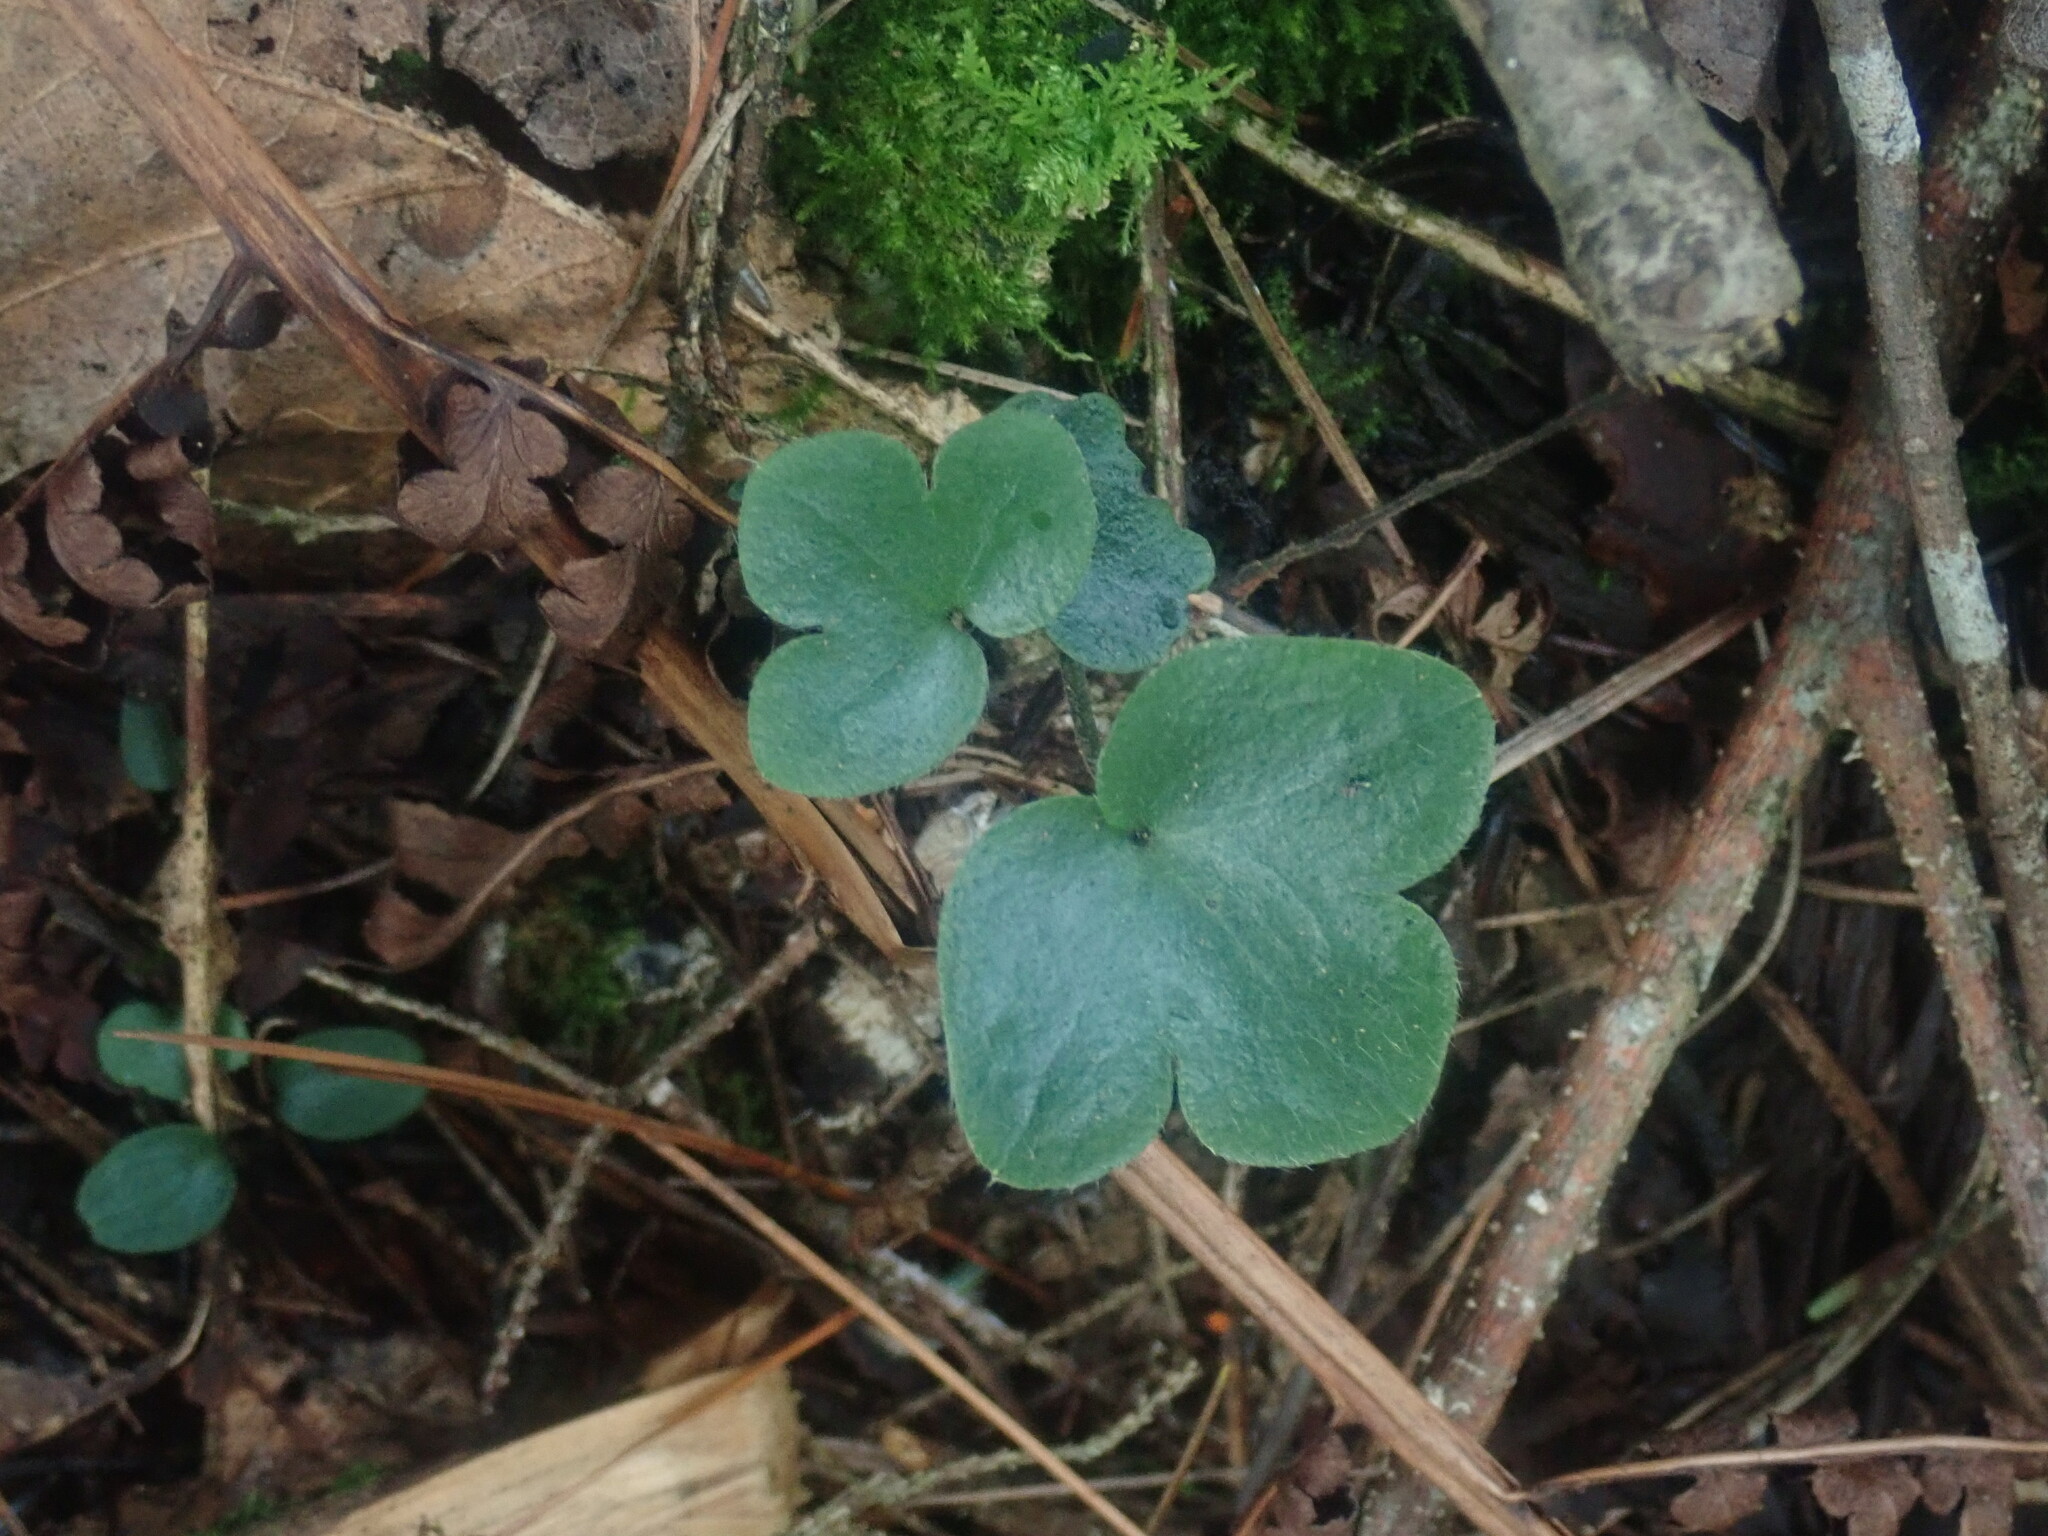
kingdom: Plantae
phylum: Tracheophyta
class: Magnoliopsida
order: Ranunculales
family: Ranunculaceae
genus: Hepatica
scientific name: Hepatica americana
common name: American hepatica
